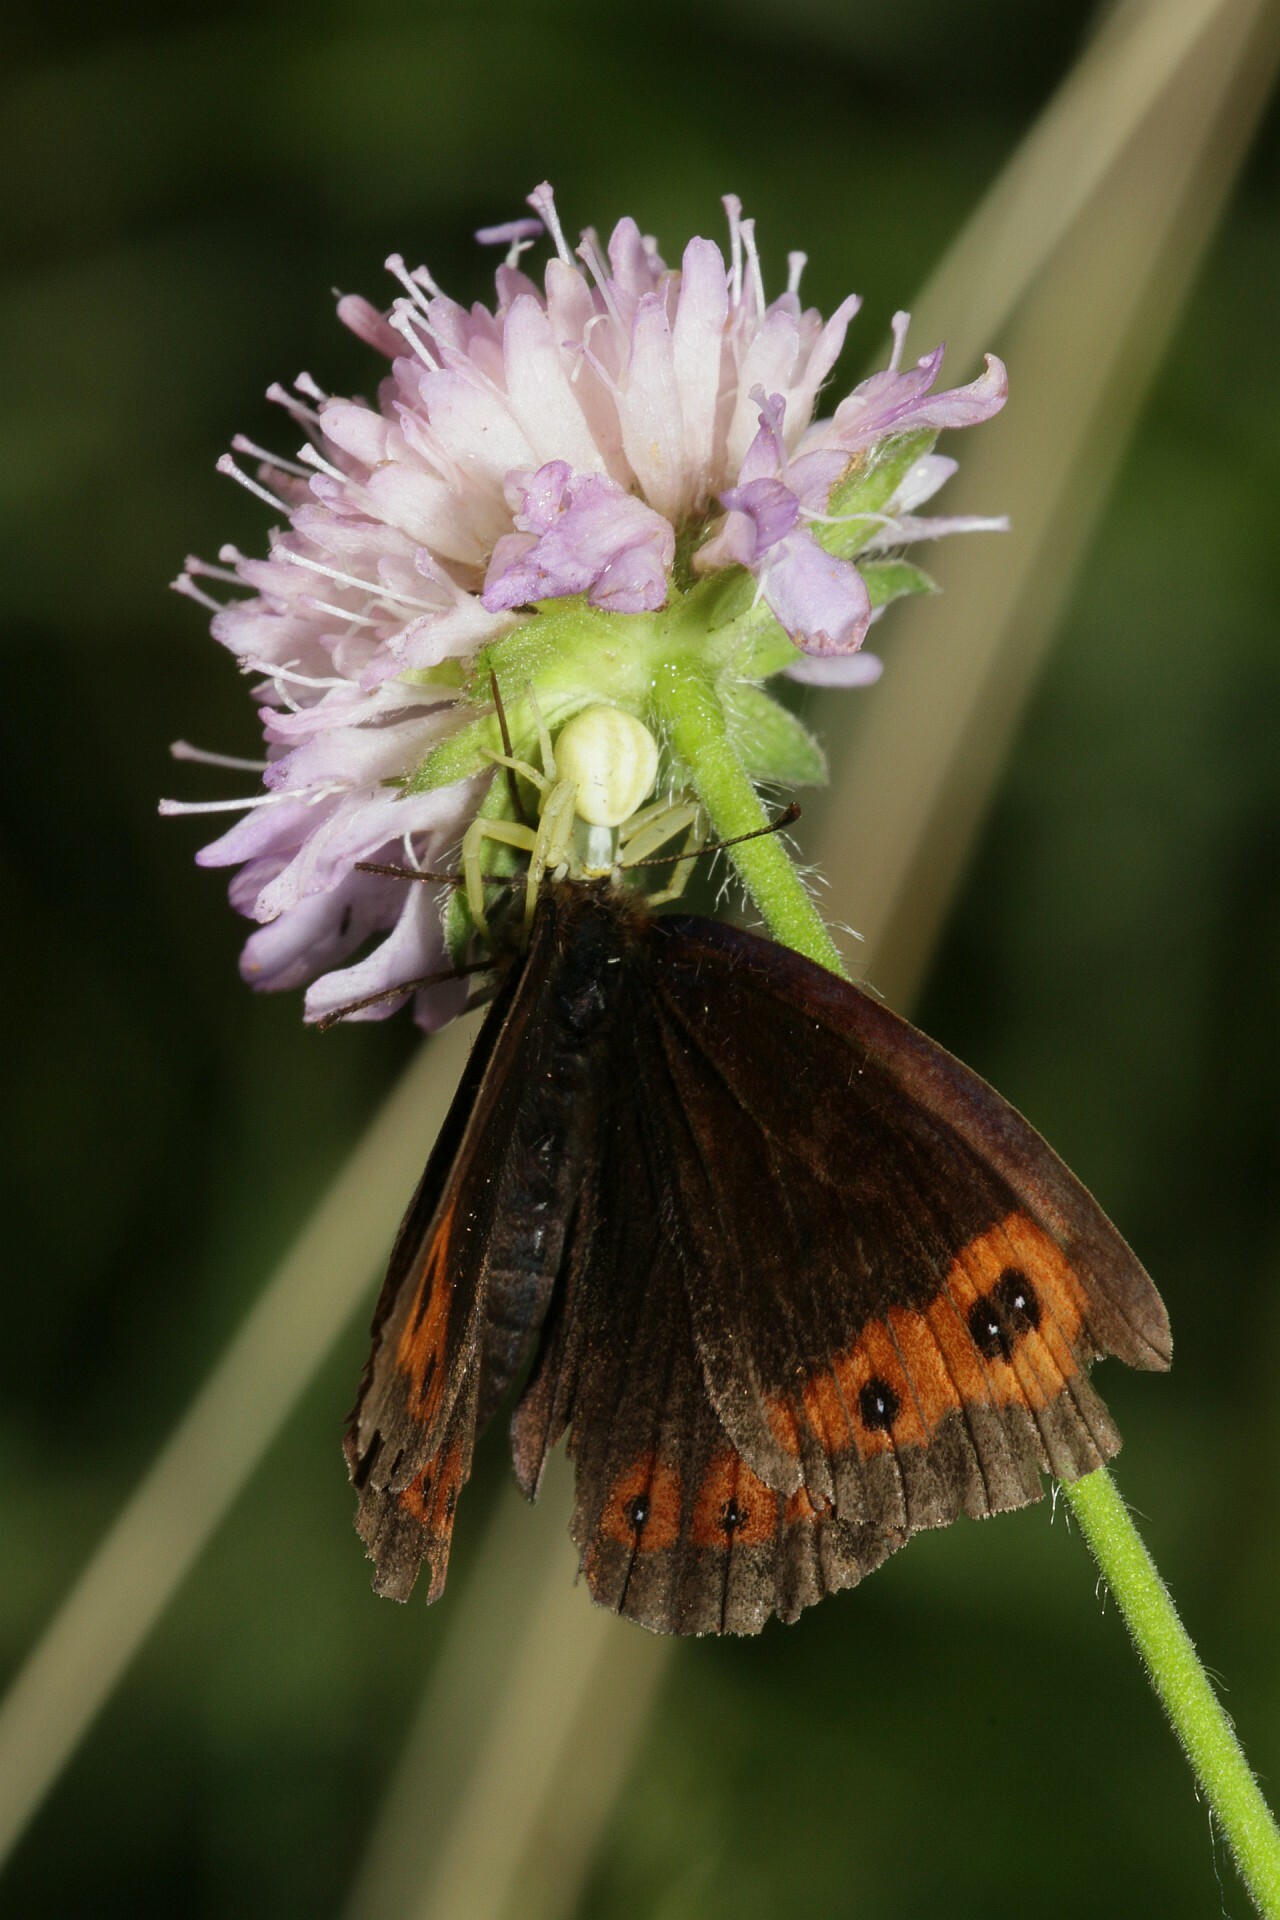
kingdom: Animalia
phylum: Arthropoda
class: Insecta
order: Lepidoptera
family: Nymphalidae
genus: Erebia
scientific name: Erebia aethiops
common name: Scotch argus
